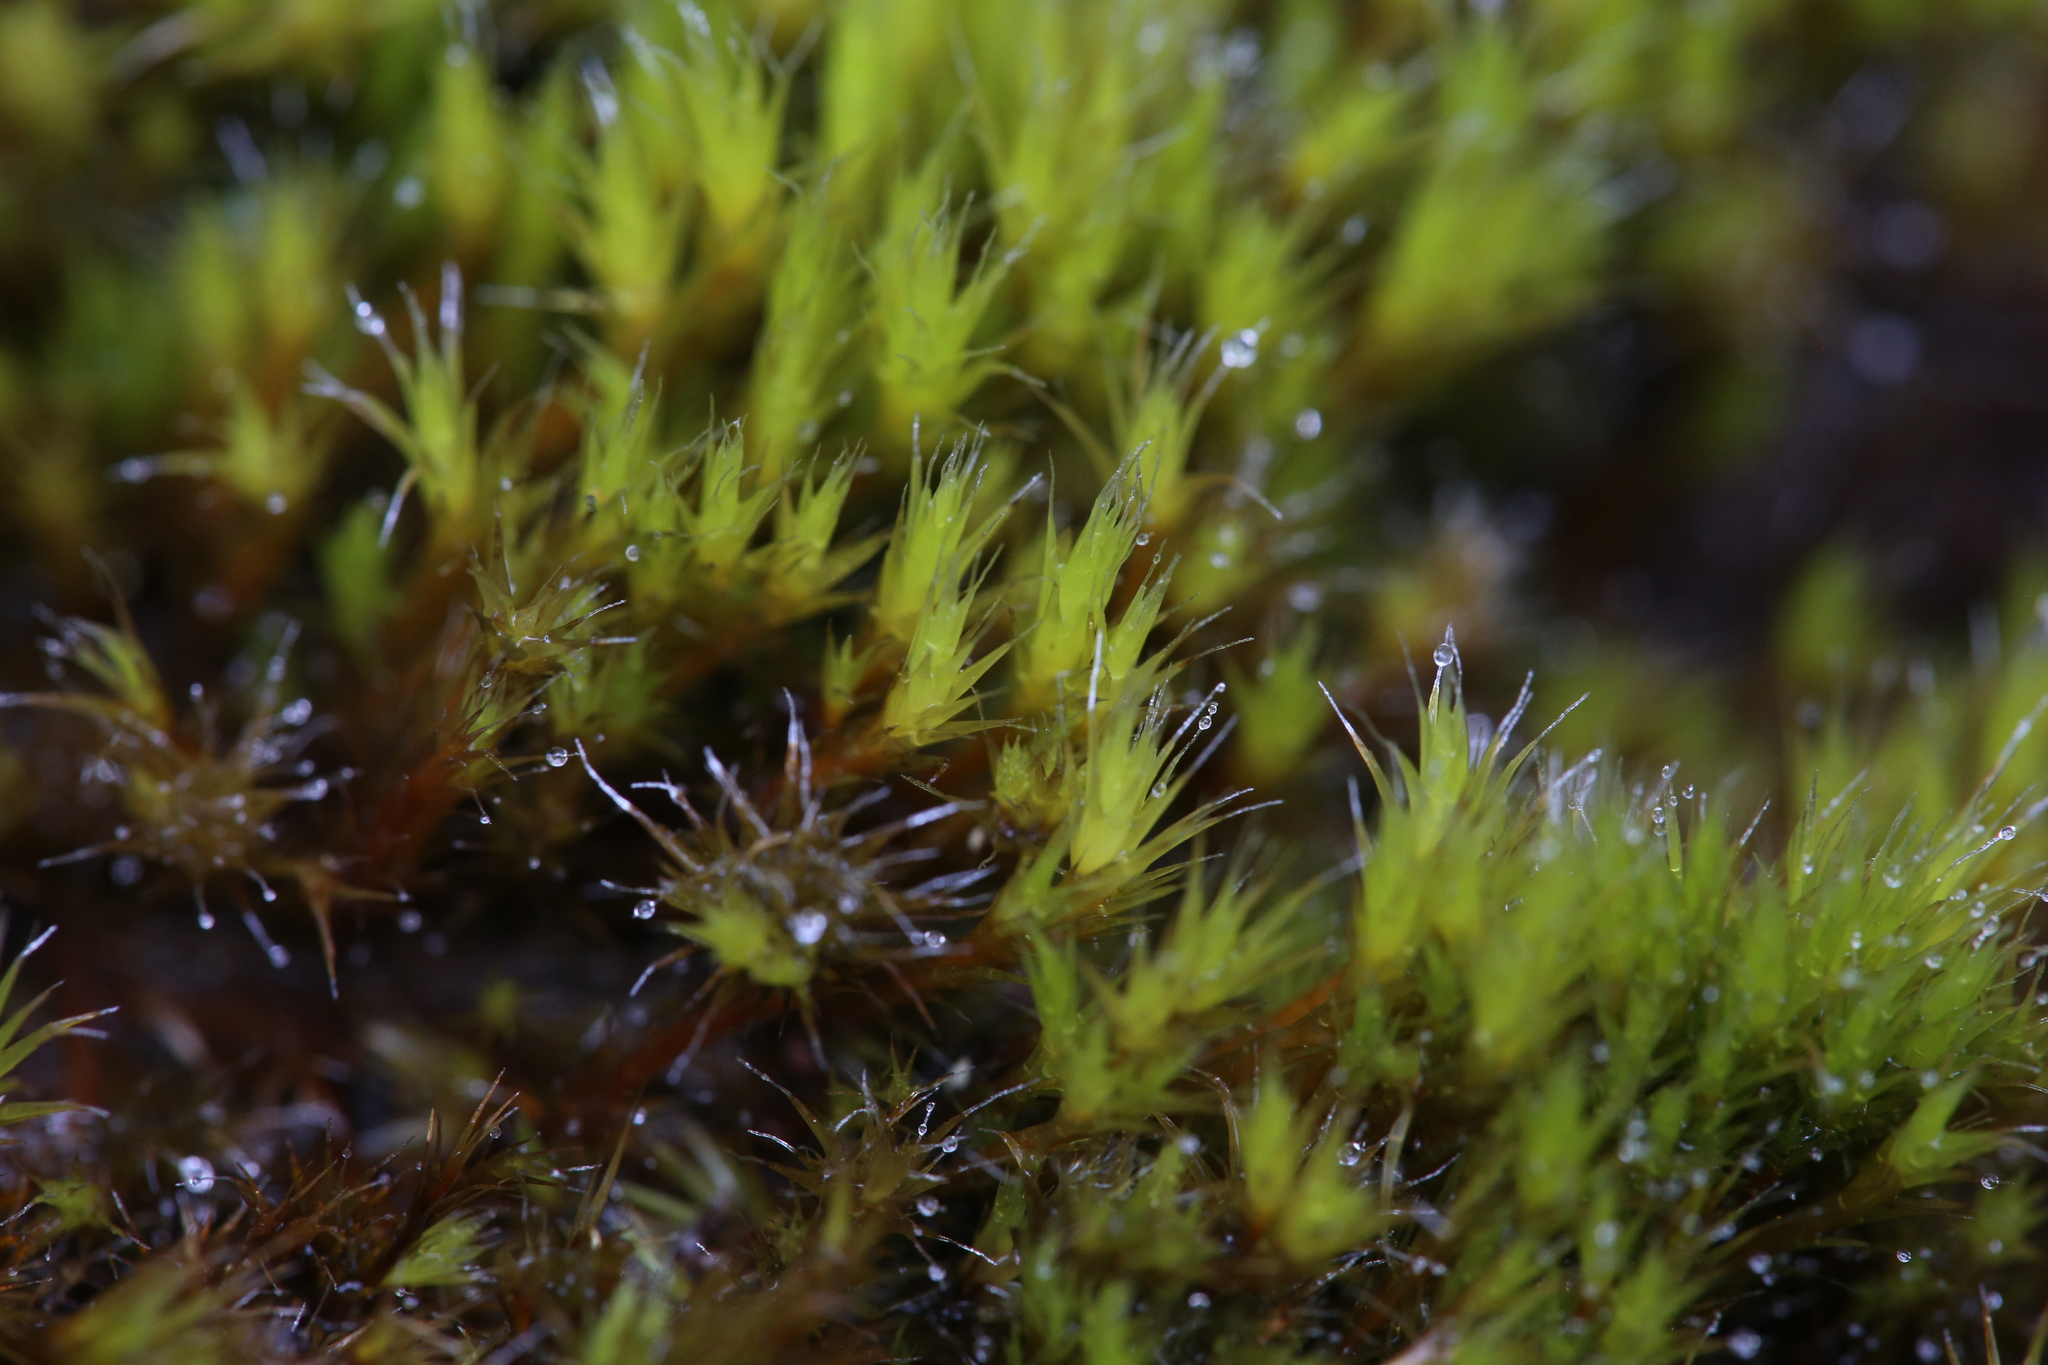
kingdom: Plantae
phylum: Bryophyta
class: Bryopsida
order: Dicranales
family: Leucobryaceae
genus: Campylopus
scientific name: Campylopus introflexus
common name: Heath star moss
